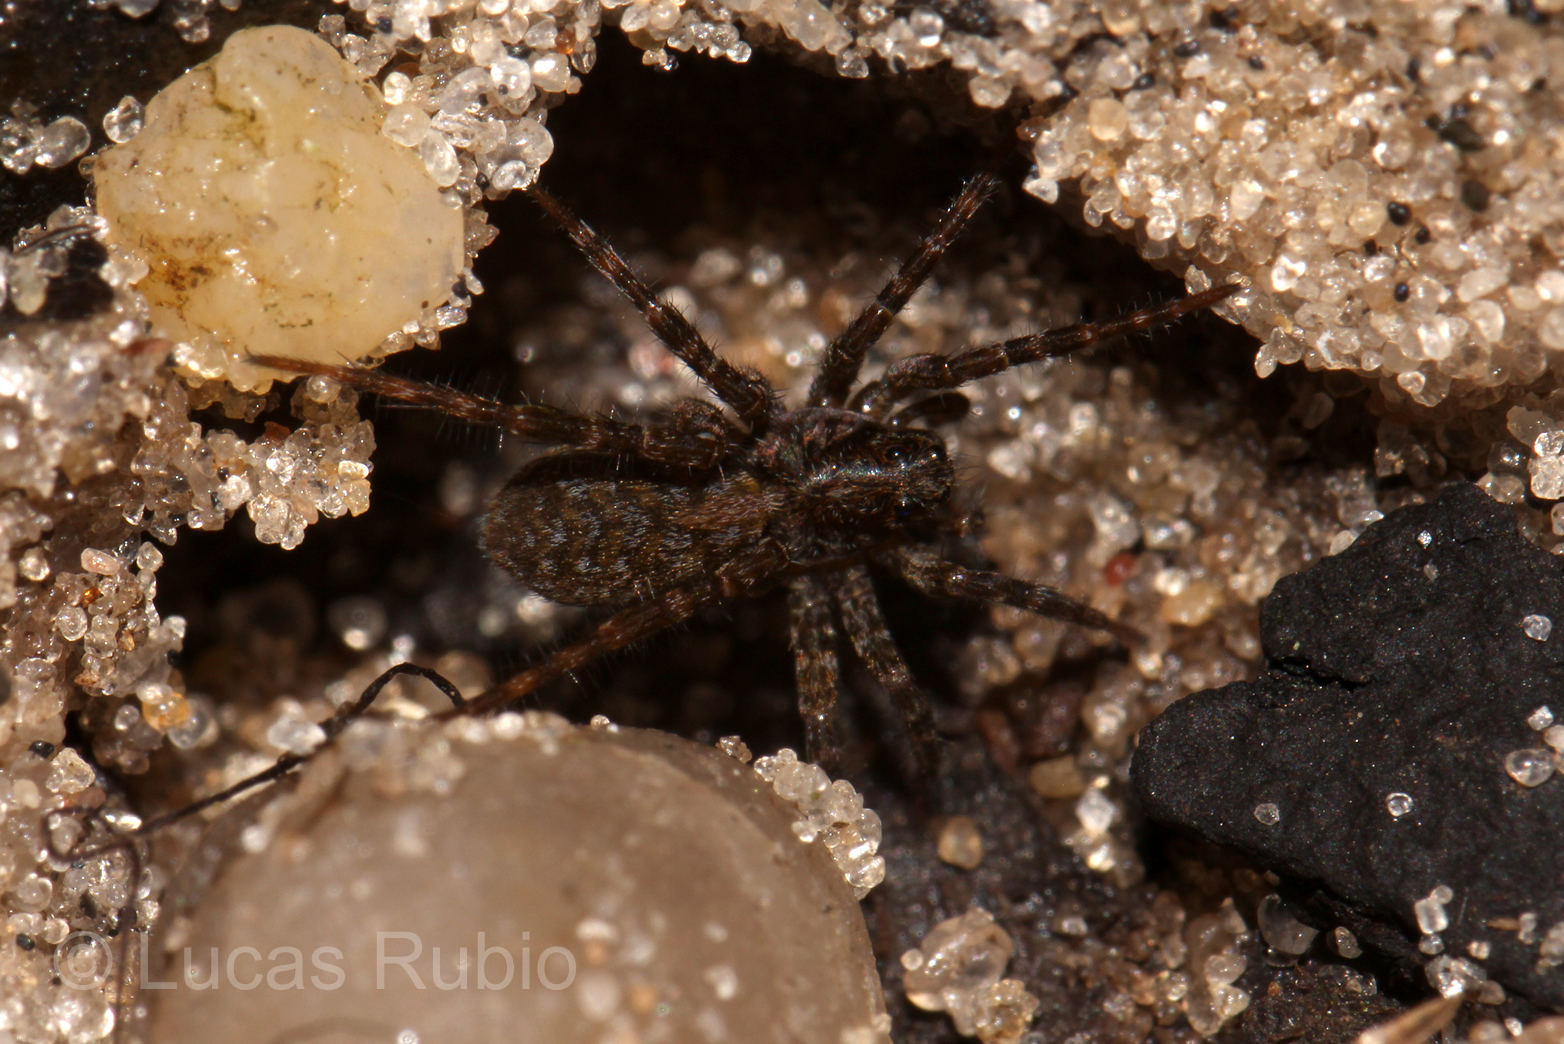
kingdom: Animalia
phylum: Arthropoda
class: Arachnida
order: Araneae
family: Lycosidae
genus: Arctosa
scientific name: Arctosa sapiranga
